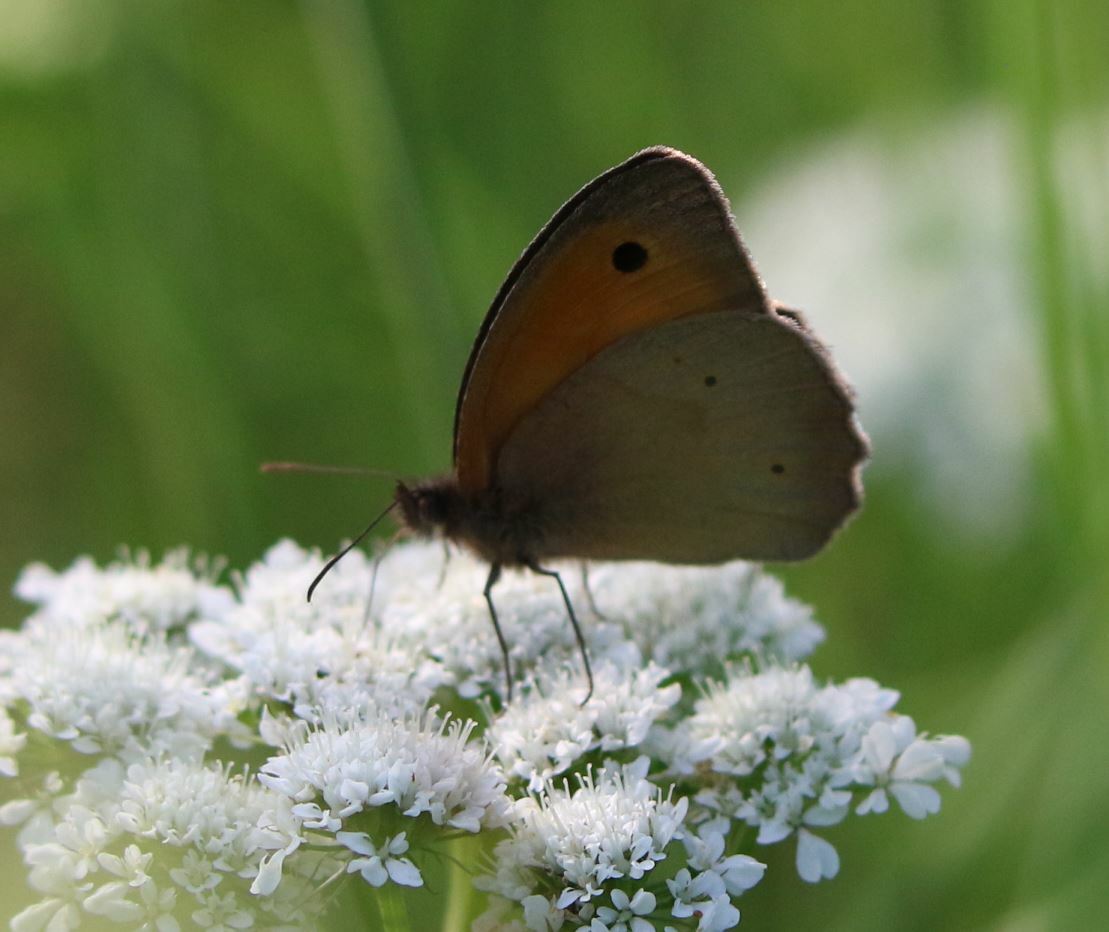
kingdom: Animalia
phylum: Arthropoda
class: Insecta
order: Lepidoptera
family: Nymphalidae
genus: Maniola
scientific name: Maniola jurtina
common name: Meadow brown
